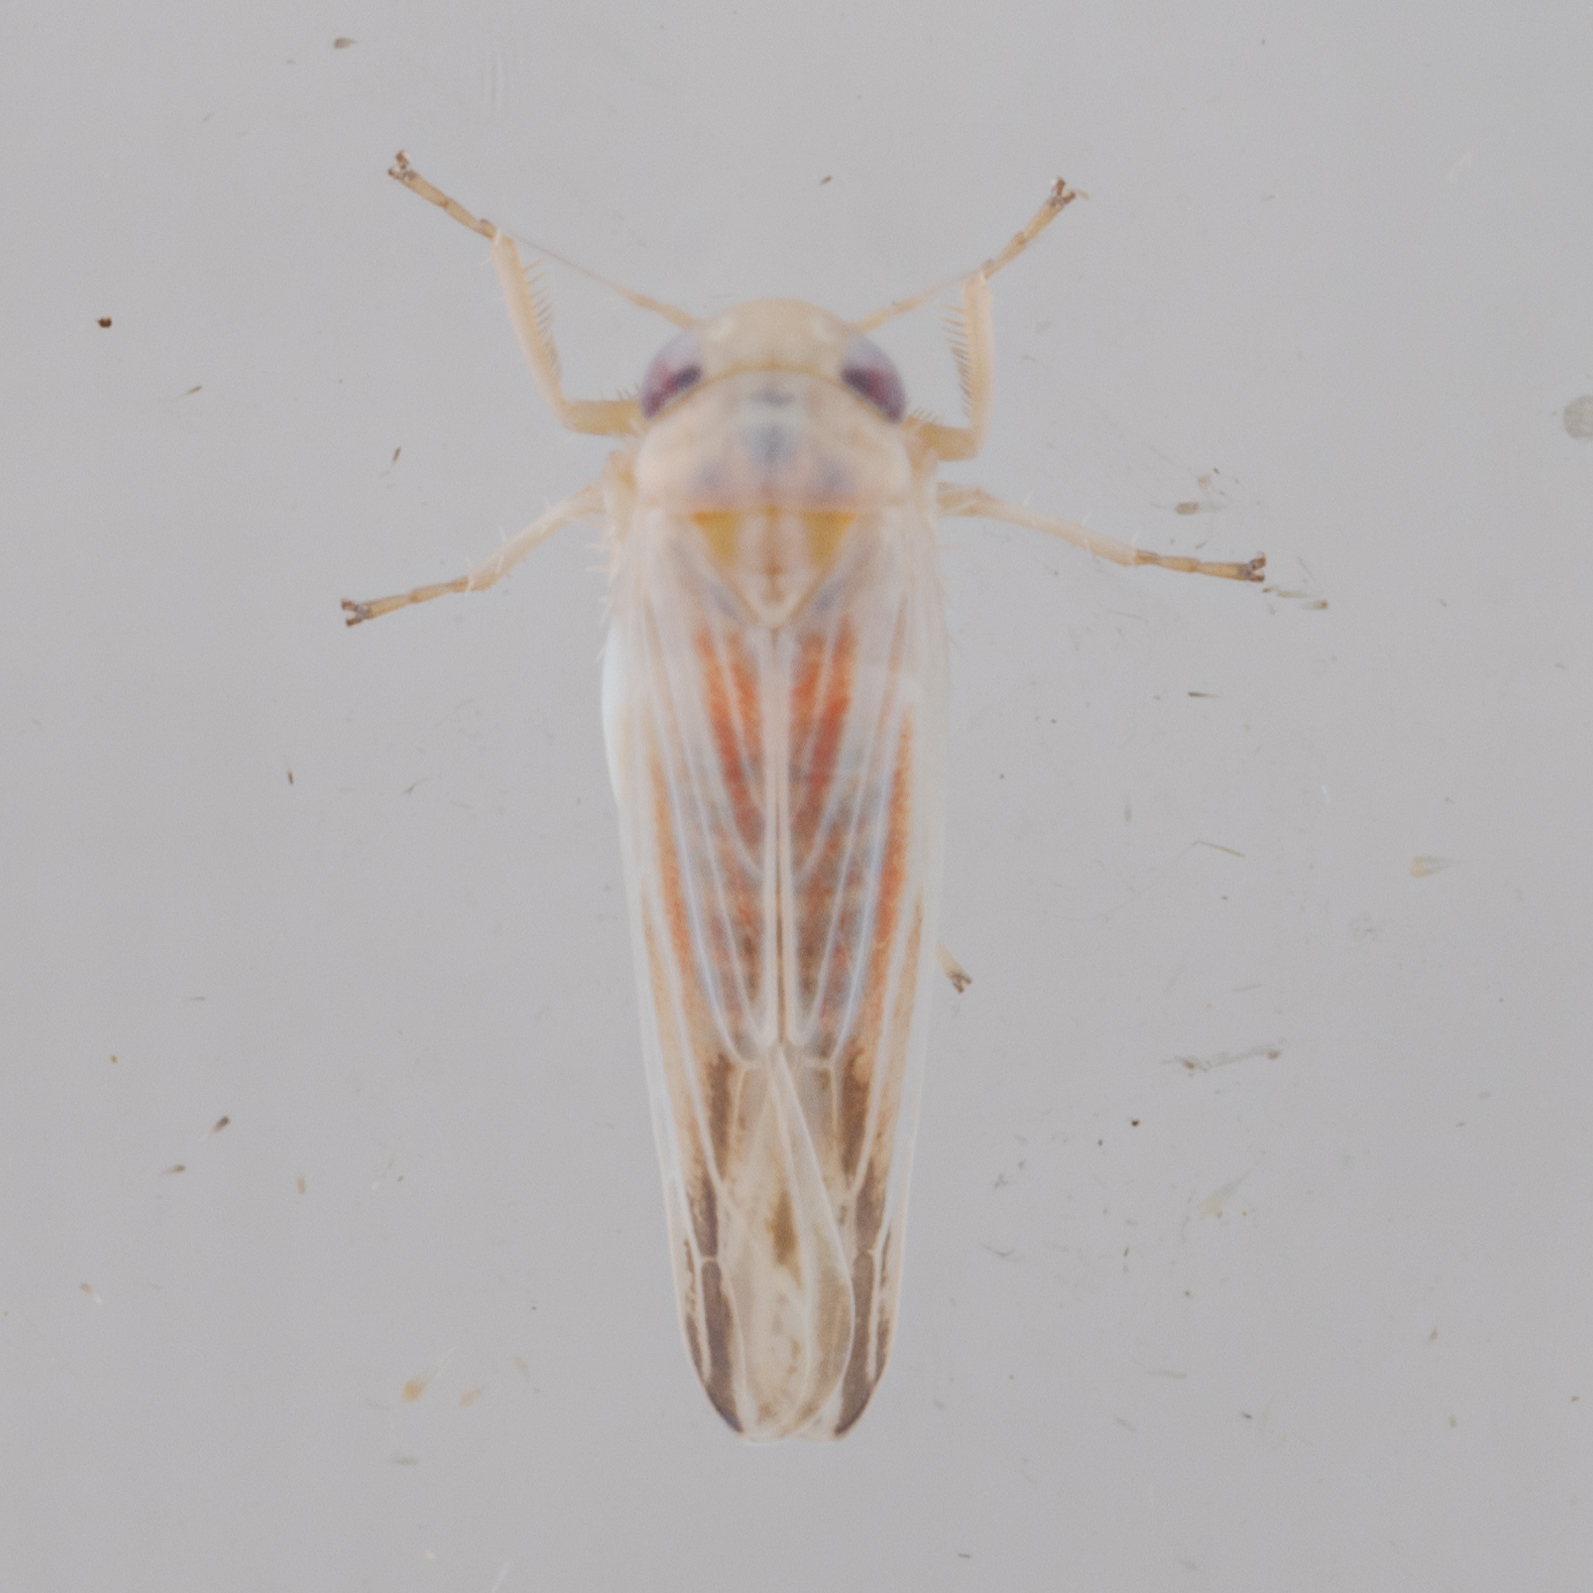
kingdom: Animalia
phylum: Arthropoda
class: Insecta
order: Hemiptera
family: Cicadellidae
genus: Balclutha
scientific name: Balclutha rubrostriata
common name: Red-streaked leafhopper
